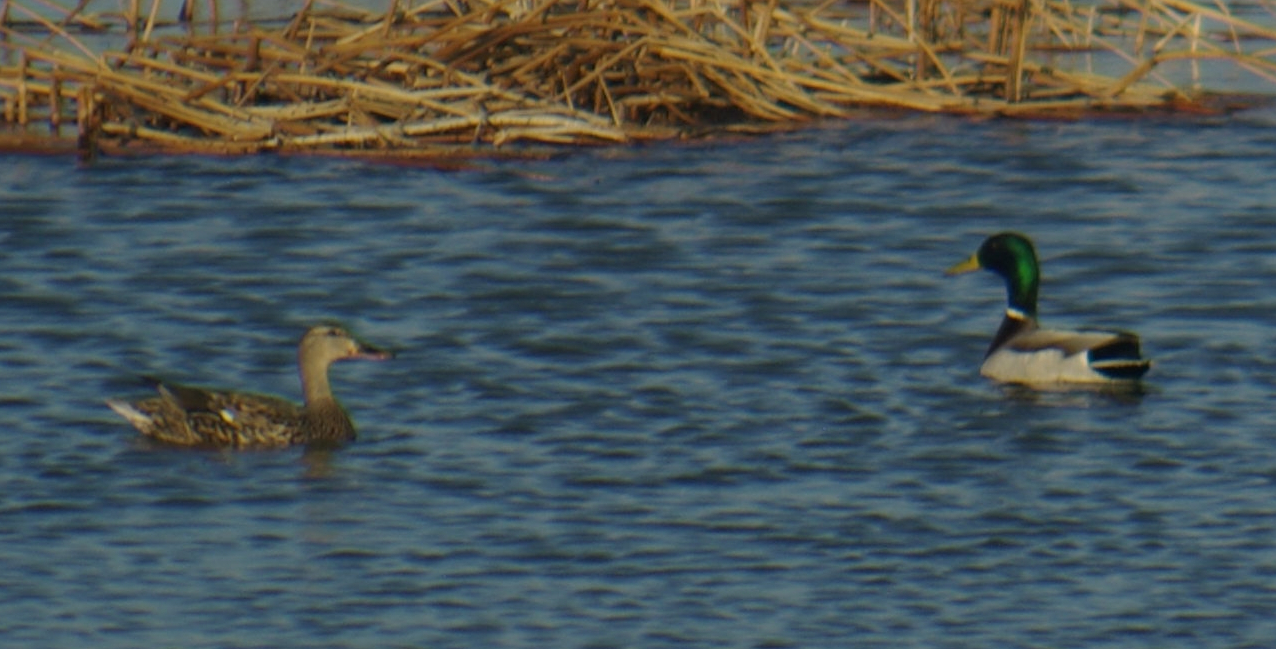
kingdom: Animalia
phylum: Chordata
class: Aves
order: Anseriformes
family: Anatidae
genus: Anas
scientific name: Anas platyrhynchos
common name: Mallard
